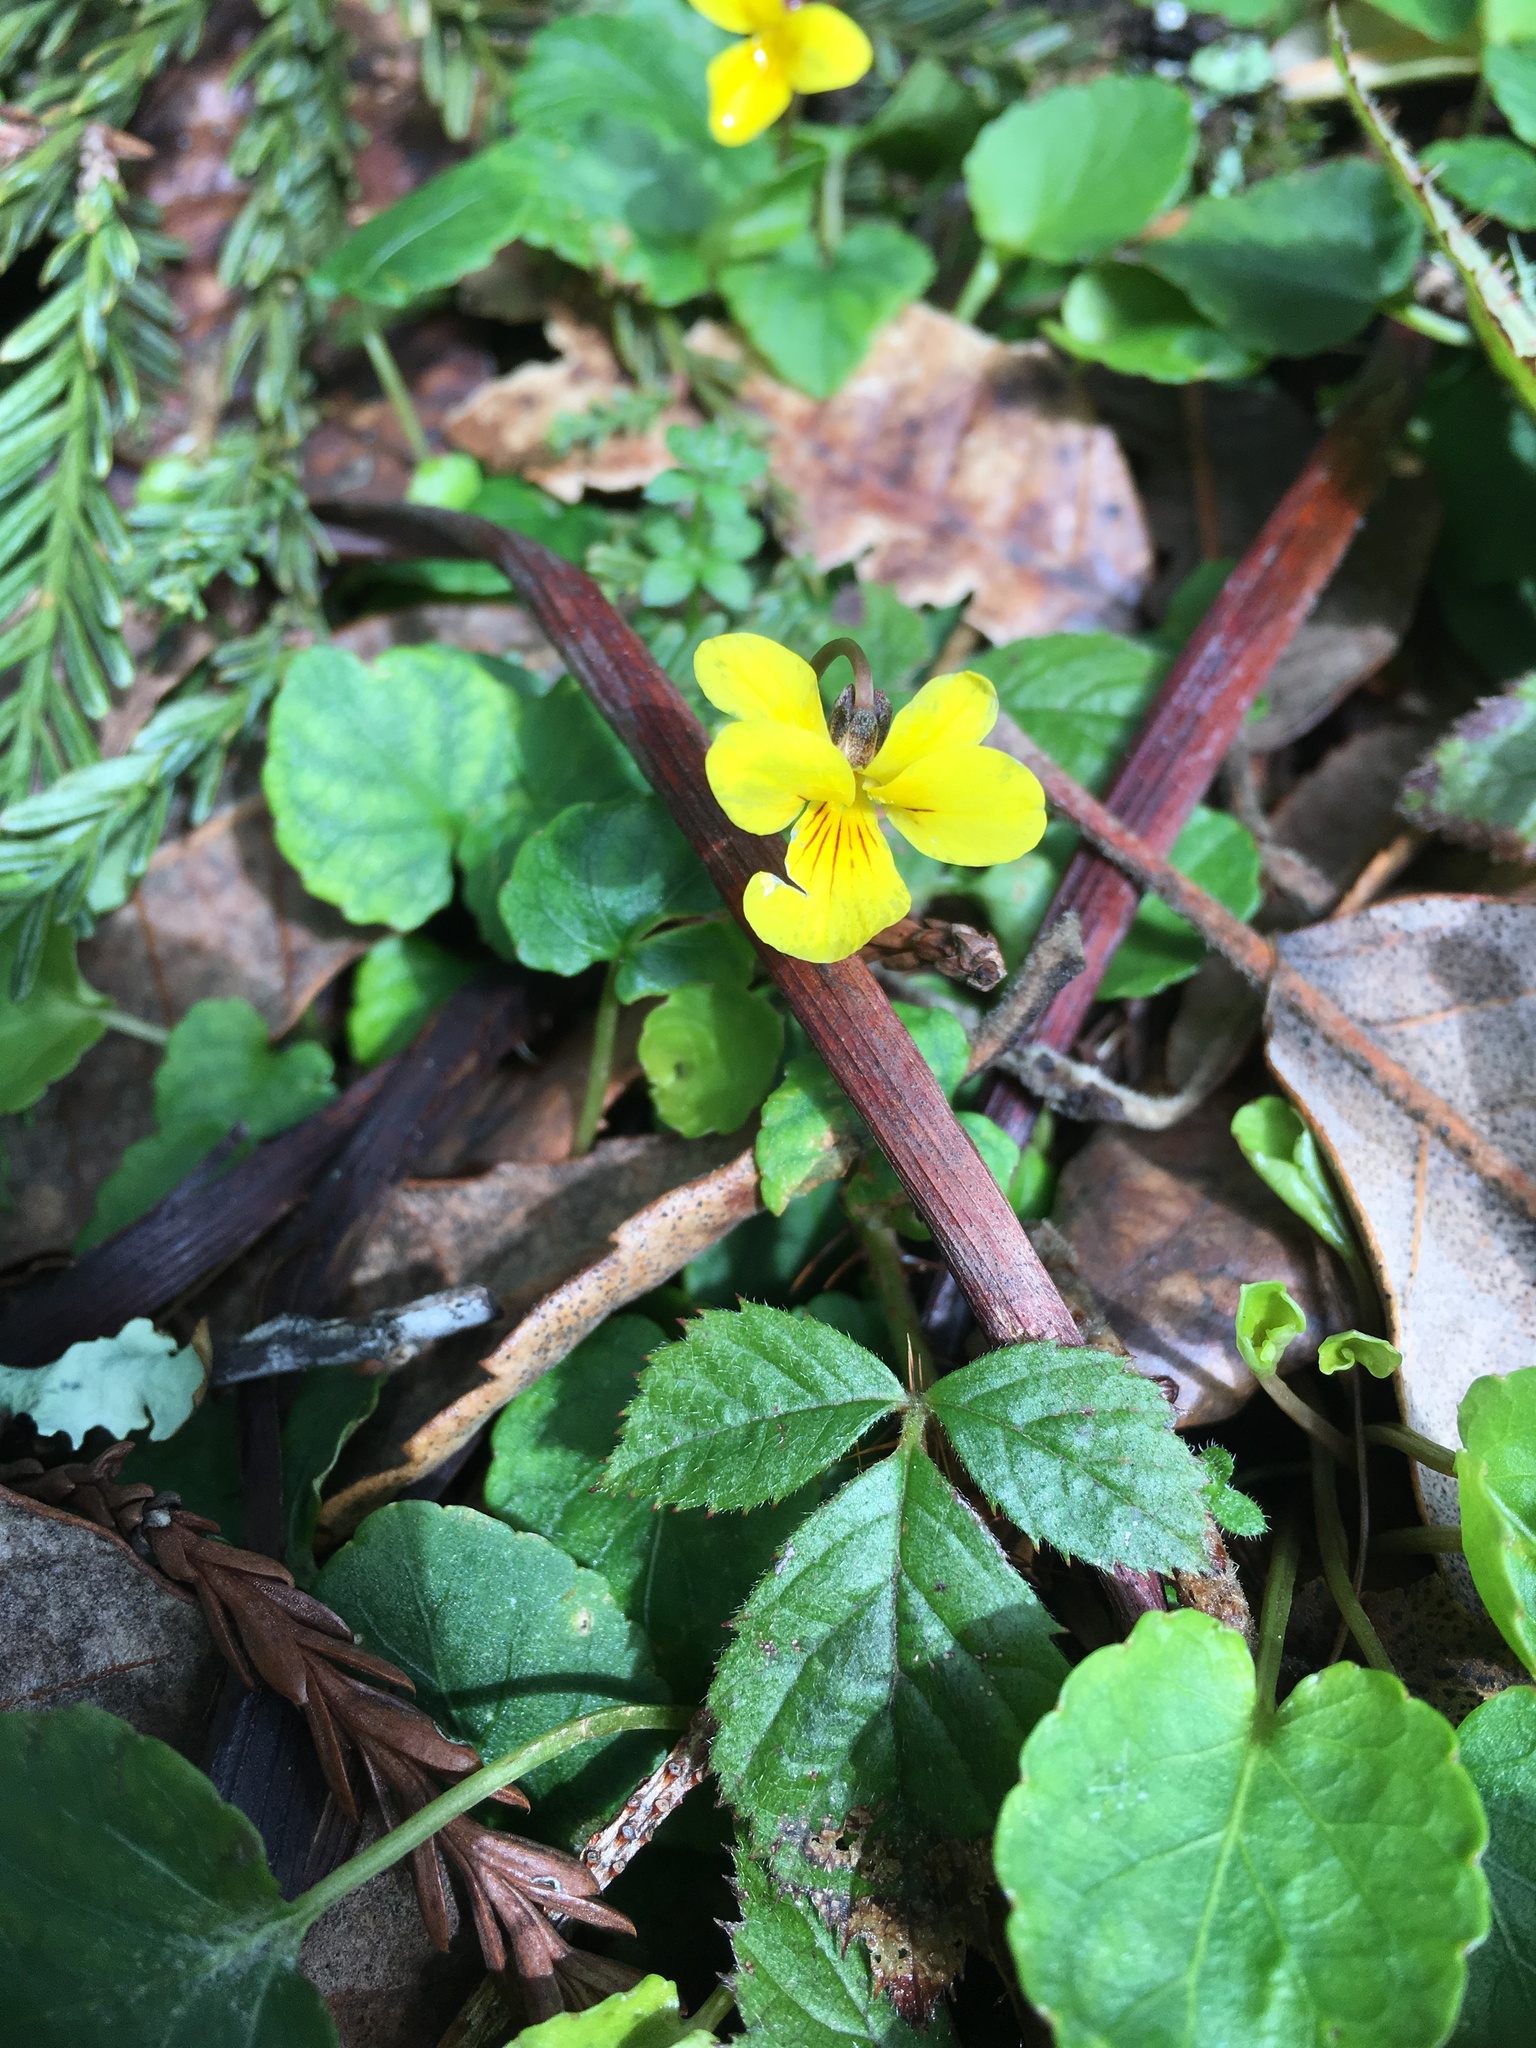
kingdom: Plantae
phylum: Tracheophyta
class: Magnoliopsida
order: Malpighiales
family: Violaceae
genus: Viola
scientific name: Viola sempervirens
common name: Evergreen violet
